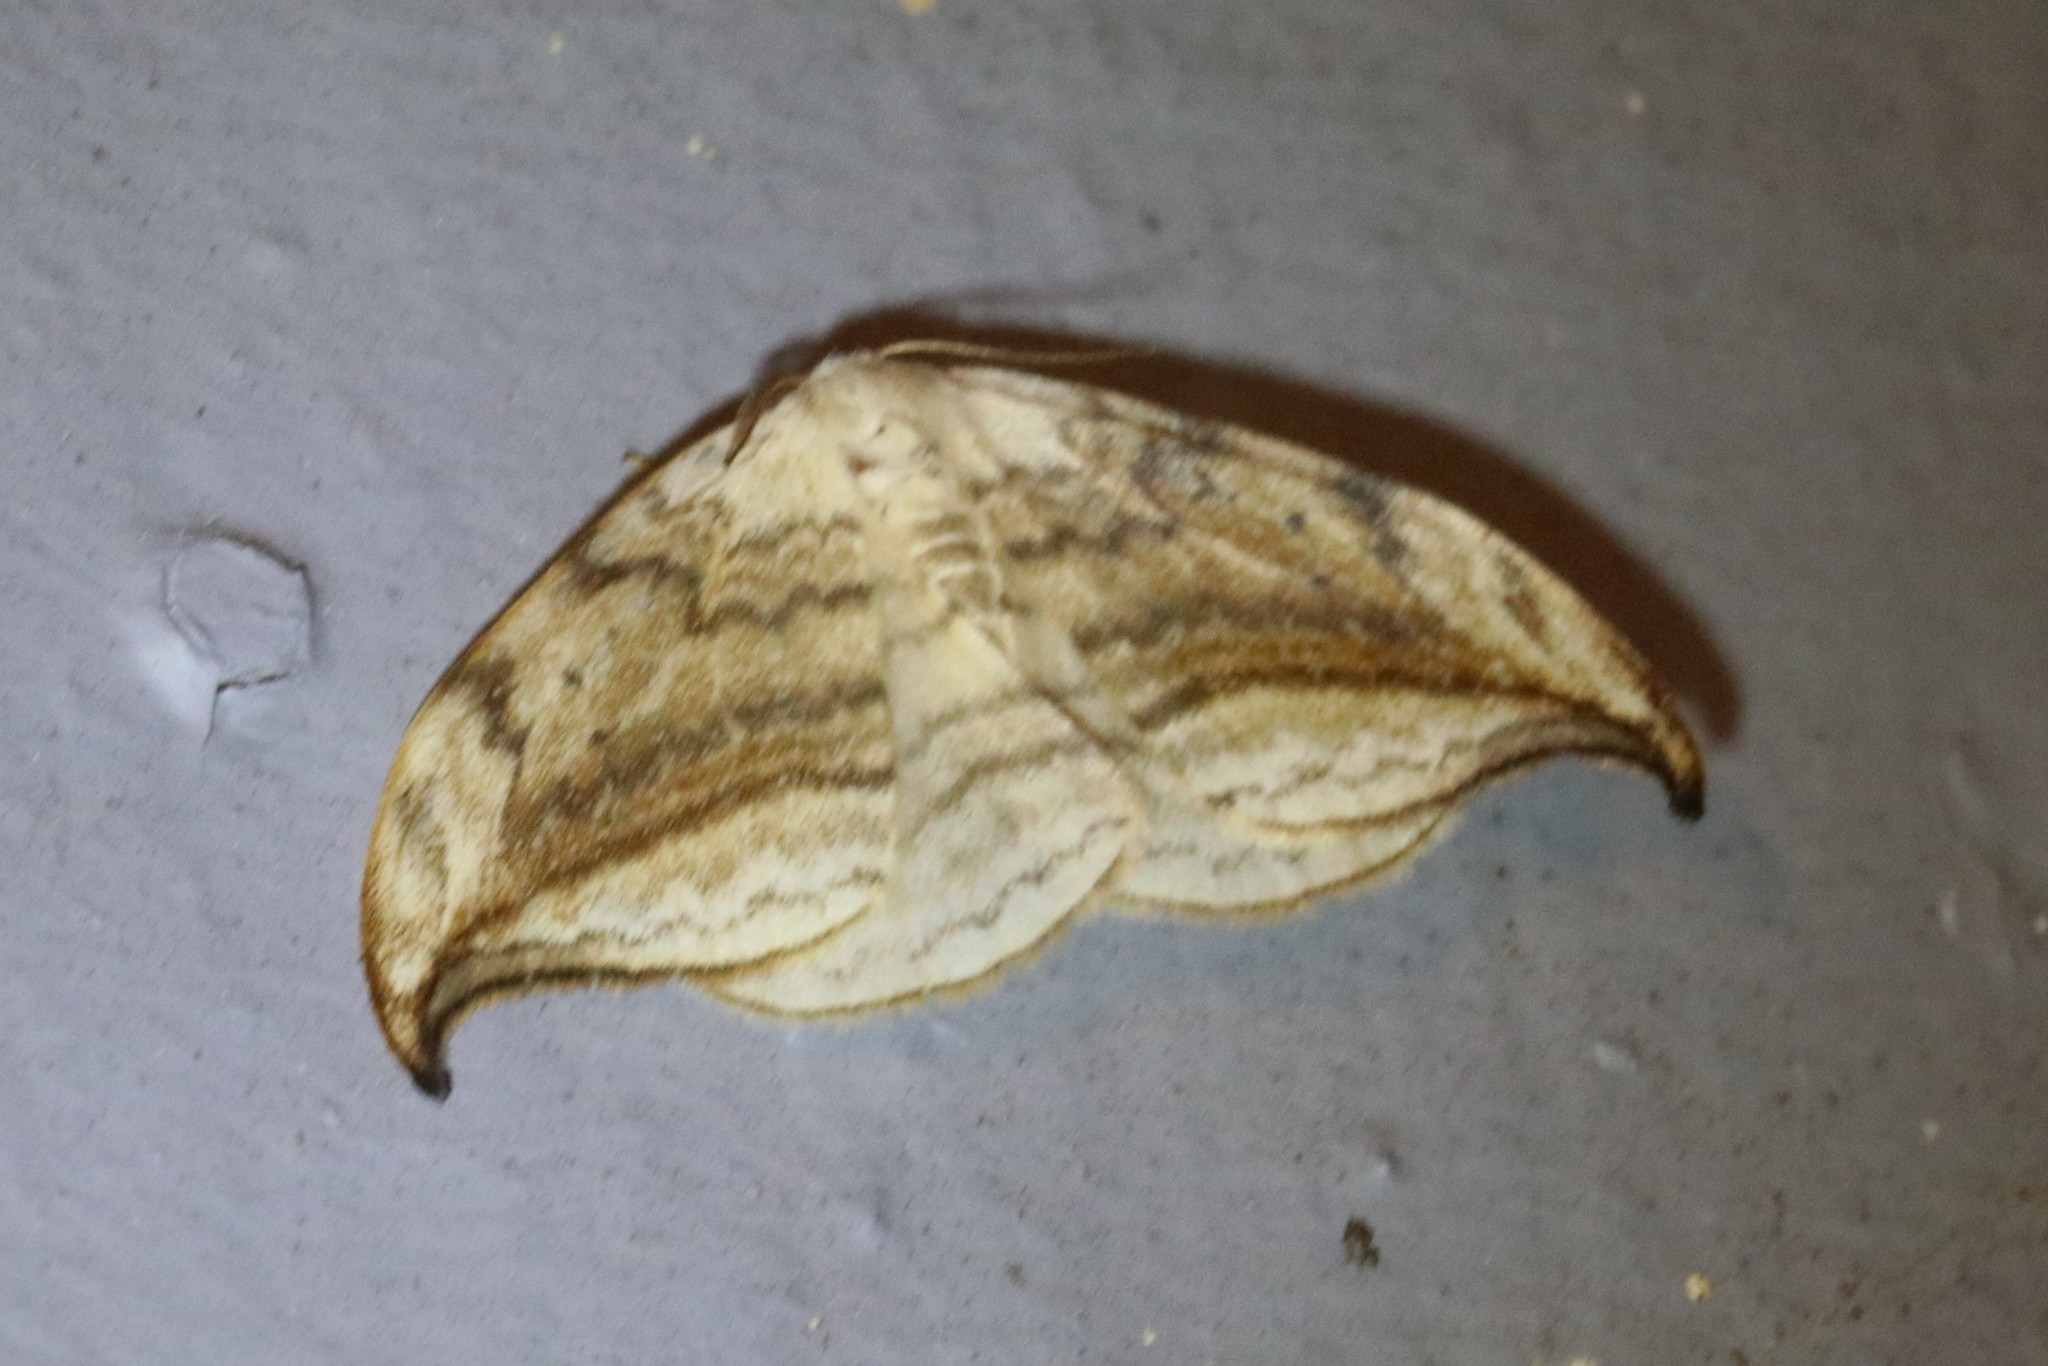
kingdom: Animalia
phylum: Arthropoda
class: Insecta
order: Lepidoptera
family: Drepanidae
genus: Drepana
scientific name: Drepana arcuata
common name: Arched hooktip moth
